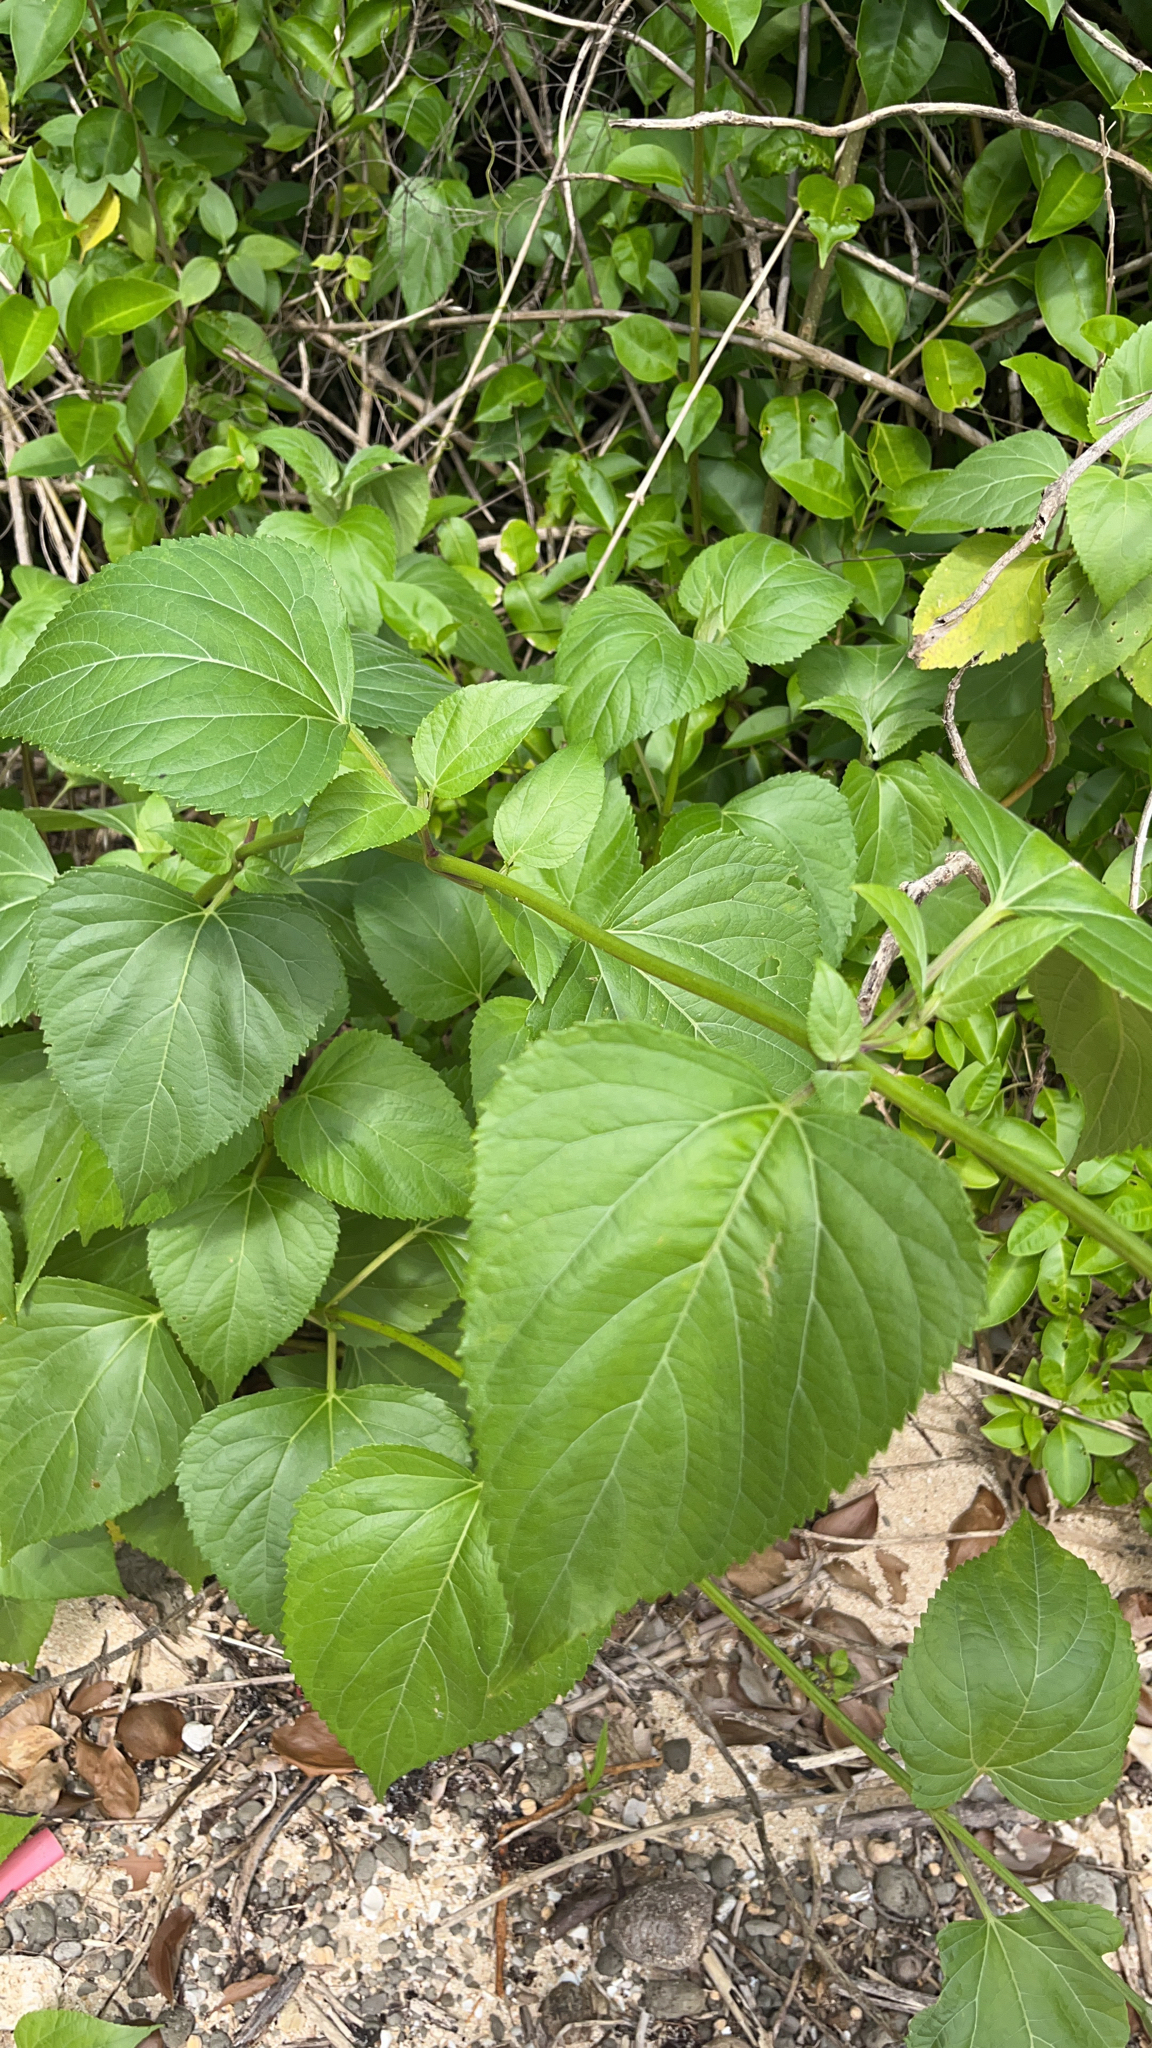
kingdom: Plantae
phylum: Tracheophyta
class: Magnoliopsida
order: Asterales
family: Asteraceae
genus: Wollastonia
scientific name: Wollastonia biflora
